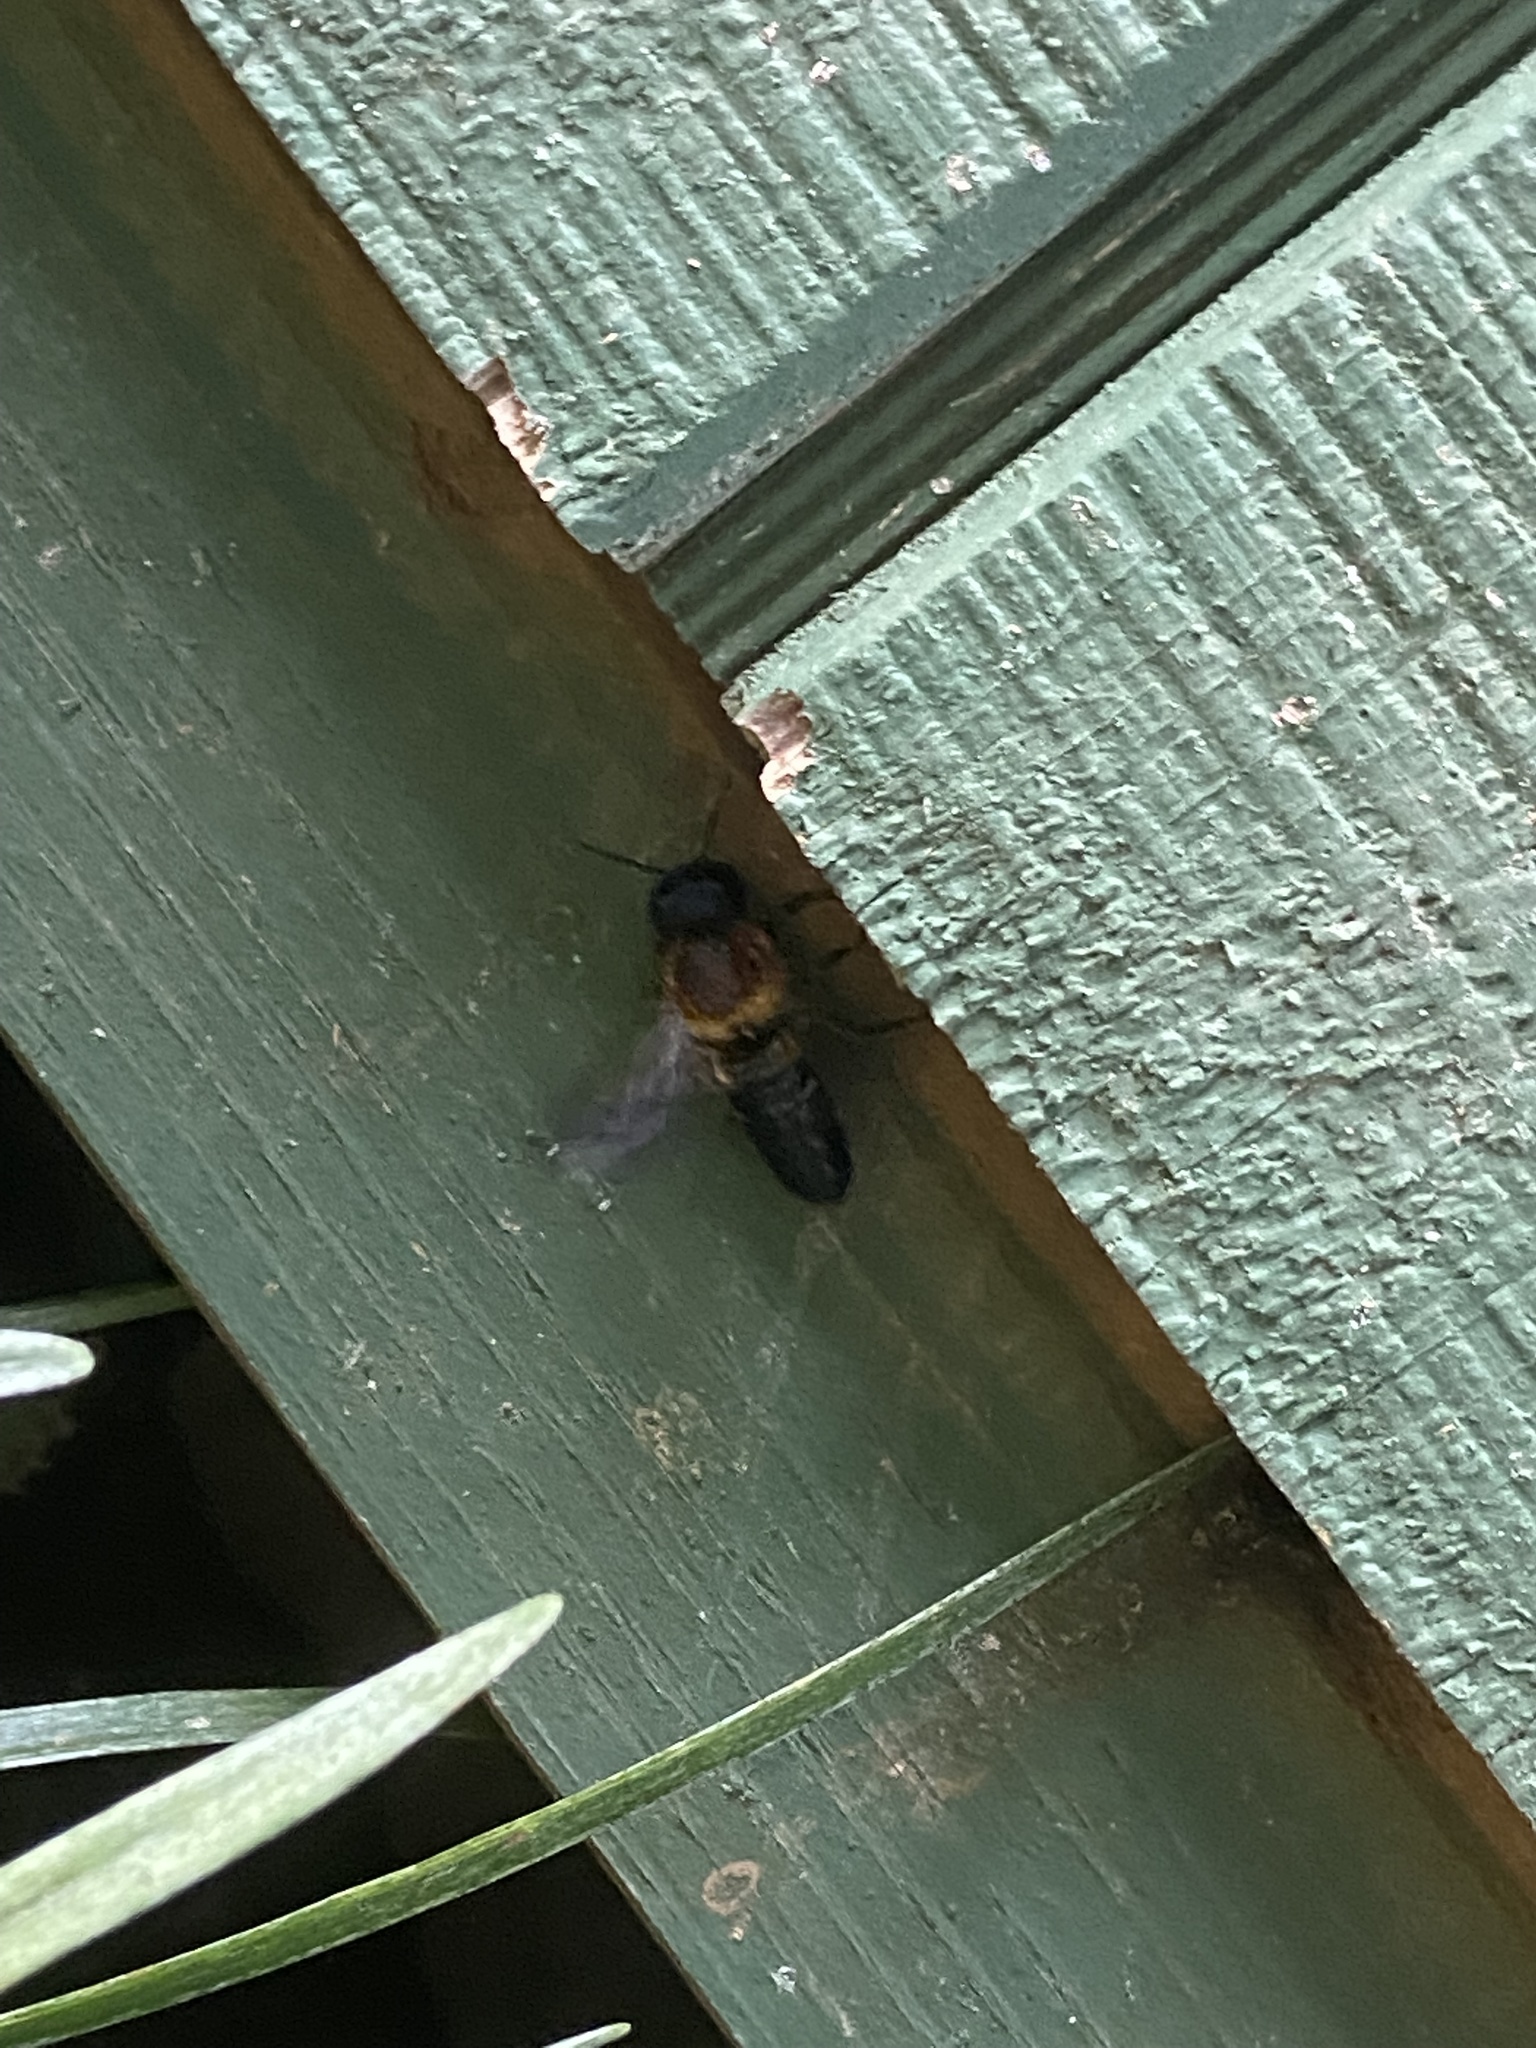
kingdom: Animalia
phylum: Arthropoda
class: Insecta
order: Hymenoptera
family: Megachilidae
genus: Megachile
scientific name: Megachile sculpturalis
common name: Sculptured resin bee
